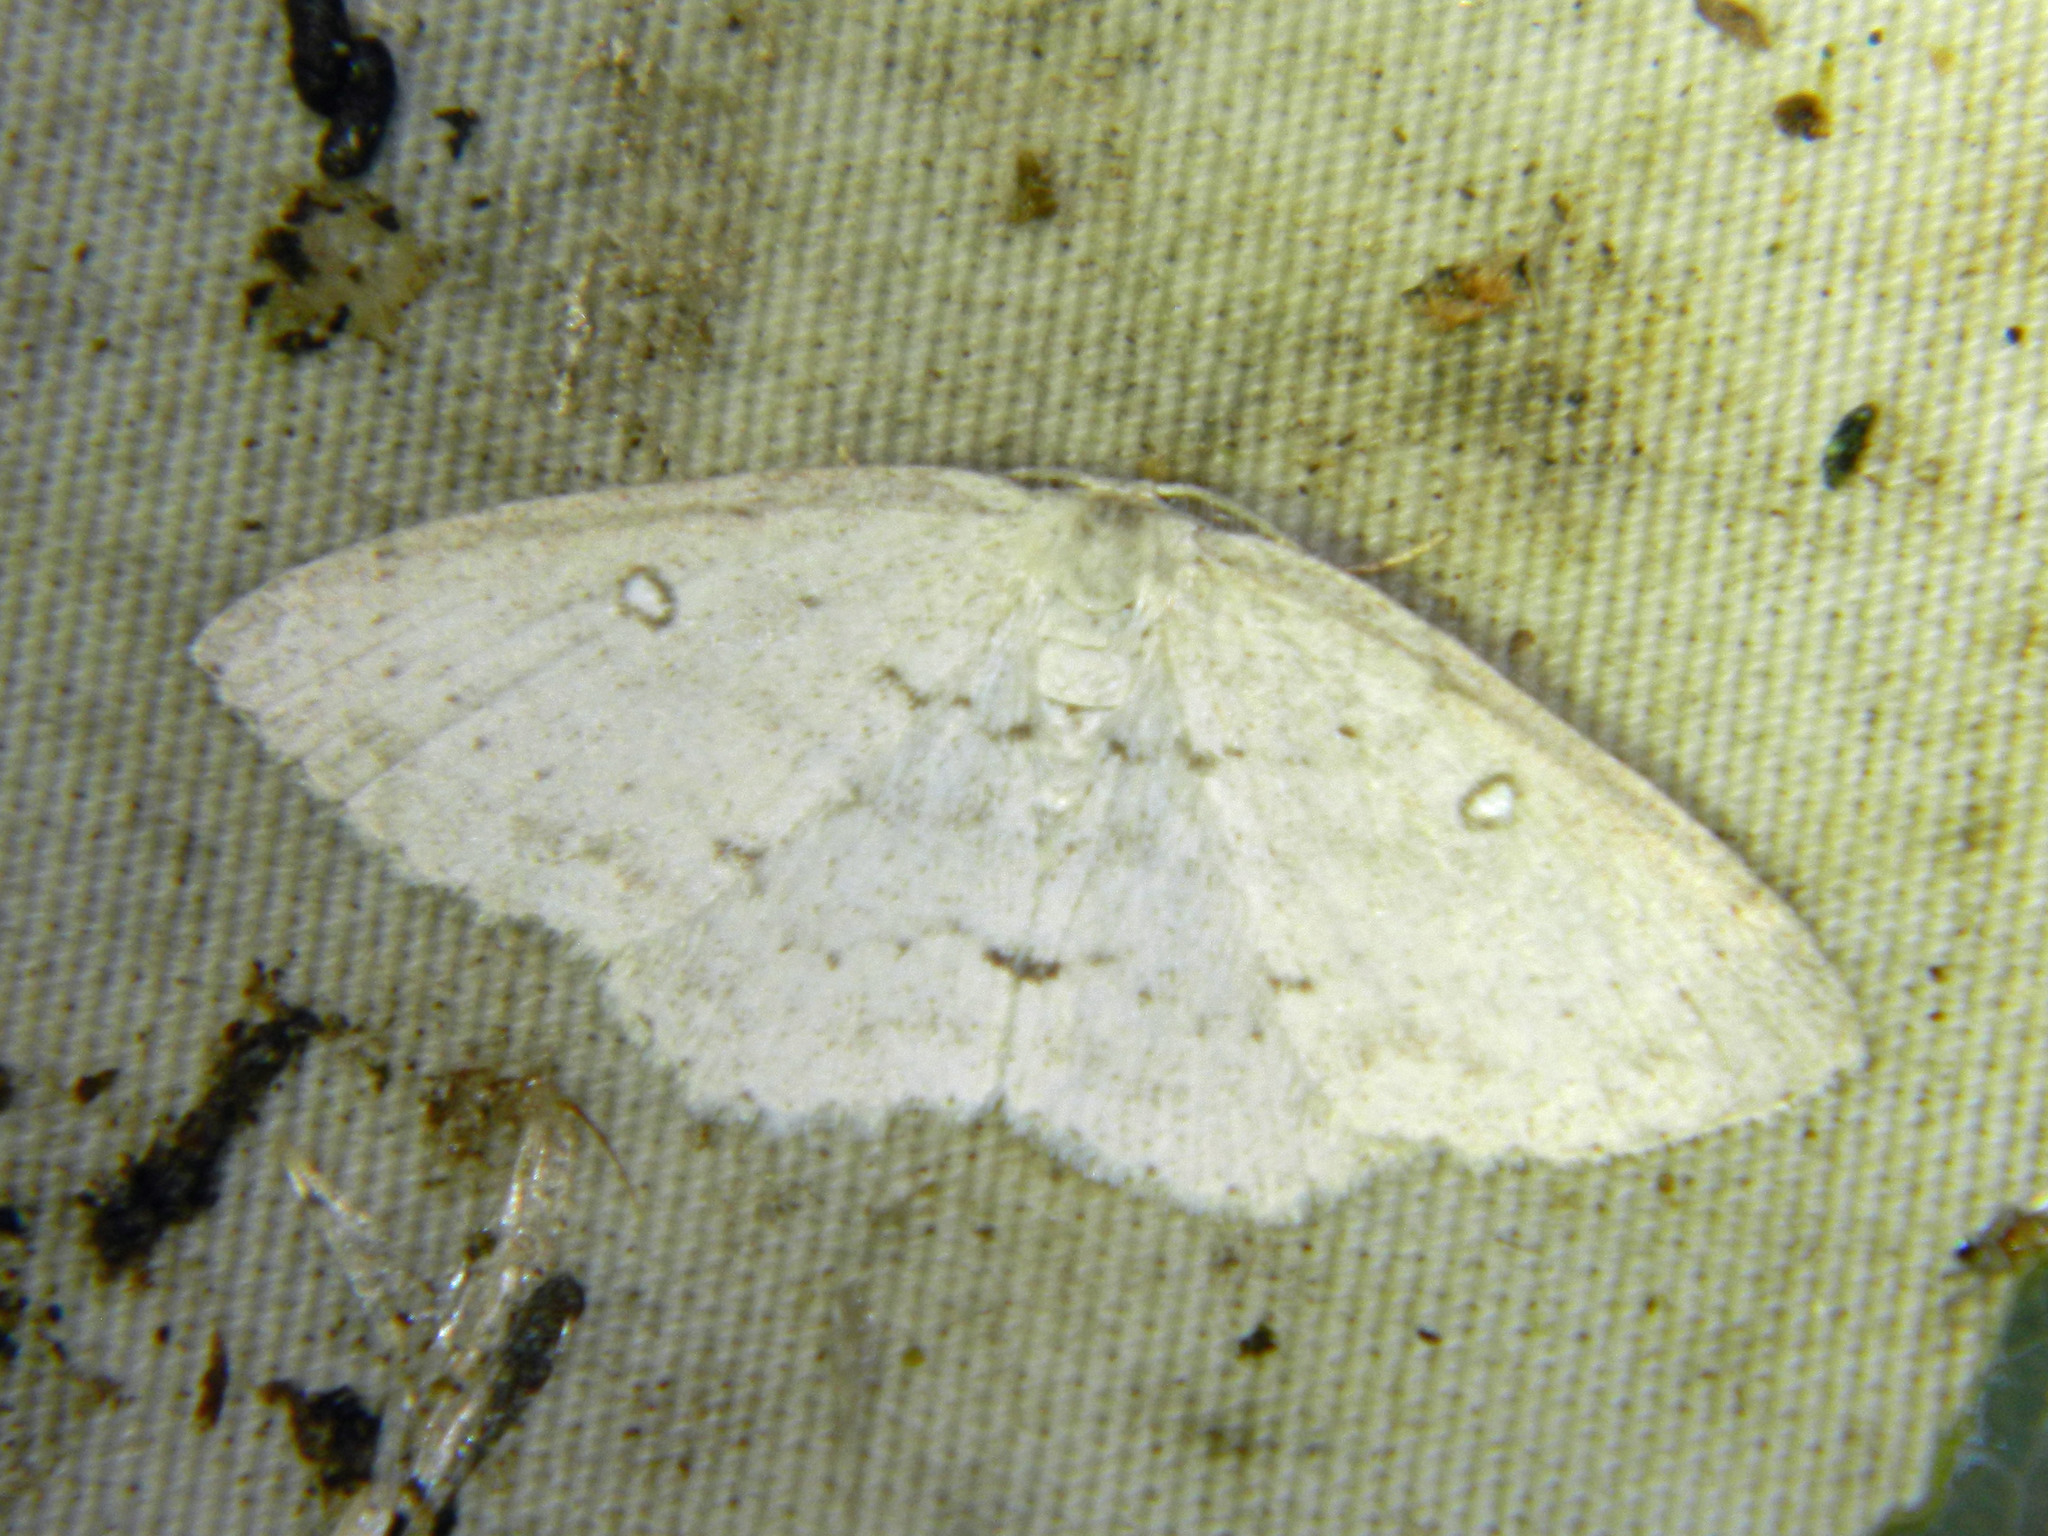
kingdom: Animalia
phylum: Arthropoda
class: Insecta
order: Lepidoptera
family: Geometridae
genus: Cyclophora
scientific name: Cyclophora pendulinaria
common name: Sweet fern geometer
